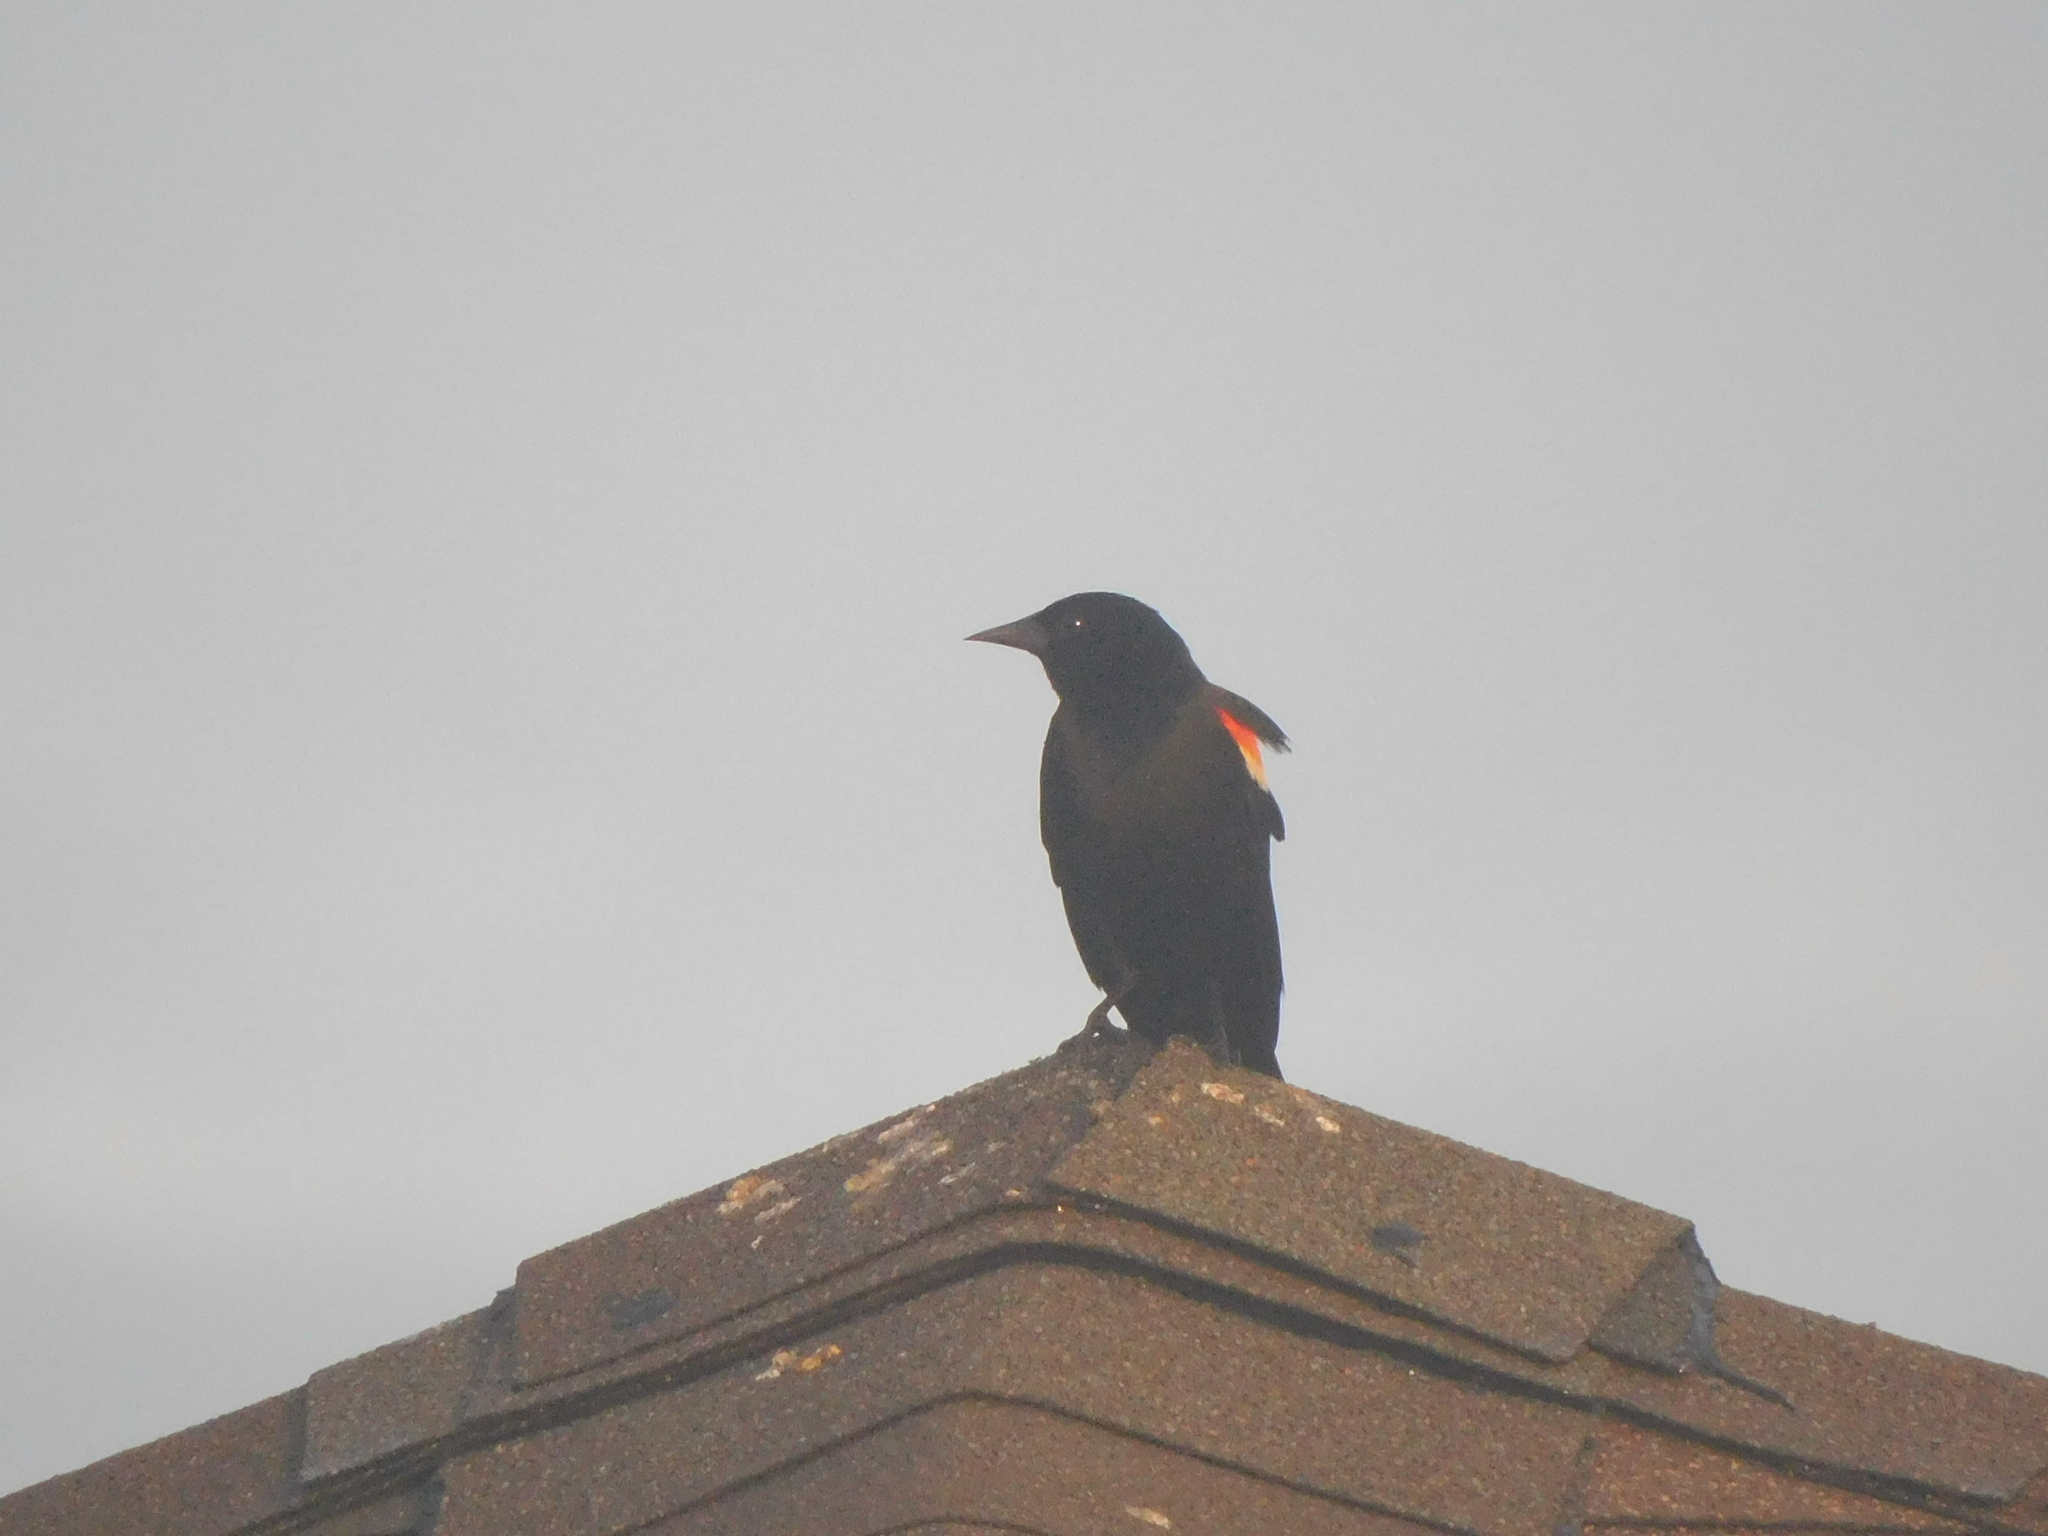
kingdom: Animalia
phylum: Chordata
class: Aves
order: Passeriformes
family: Icteridae
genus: Agelaius
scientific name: Agelaius phoeniceus
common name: Red-winged blackbird
